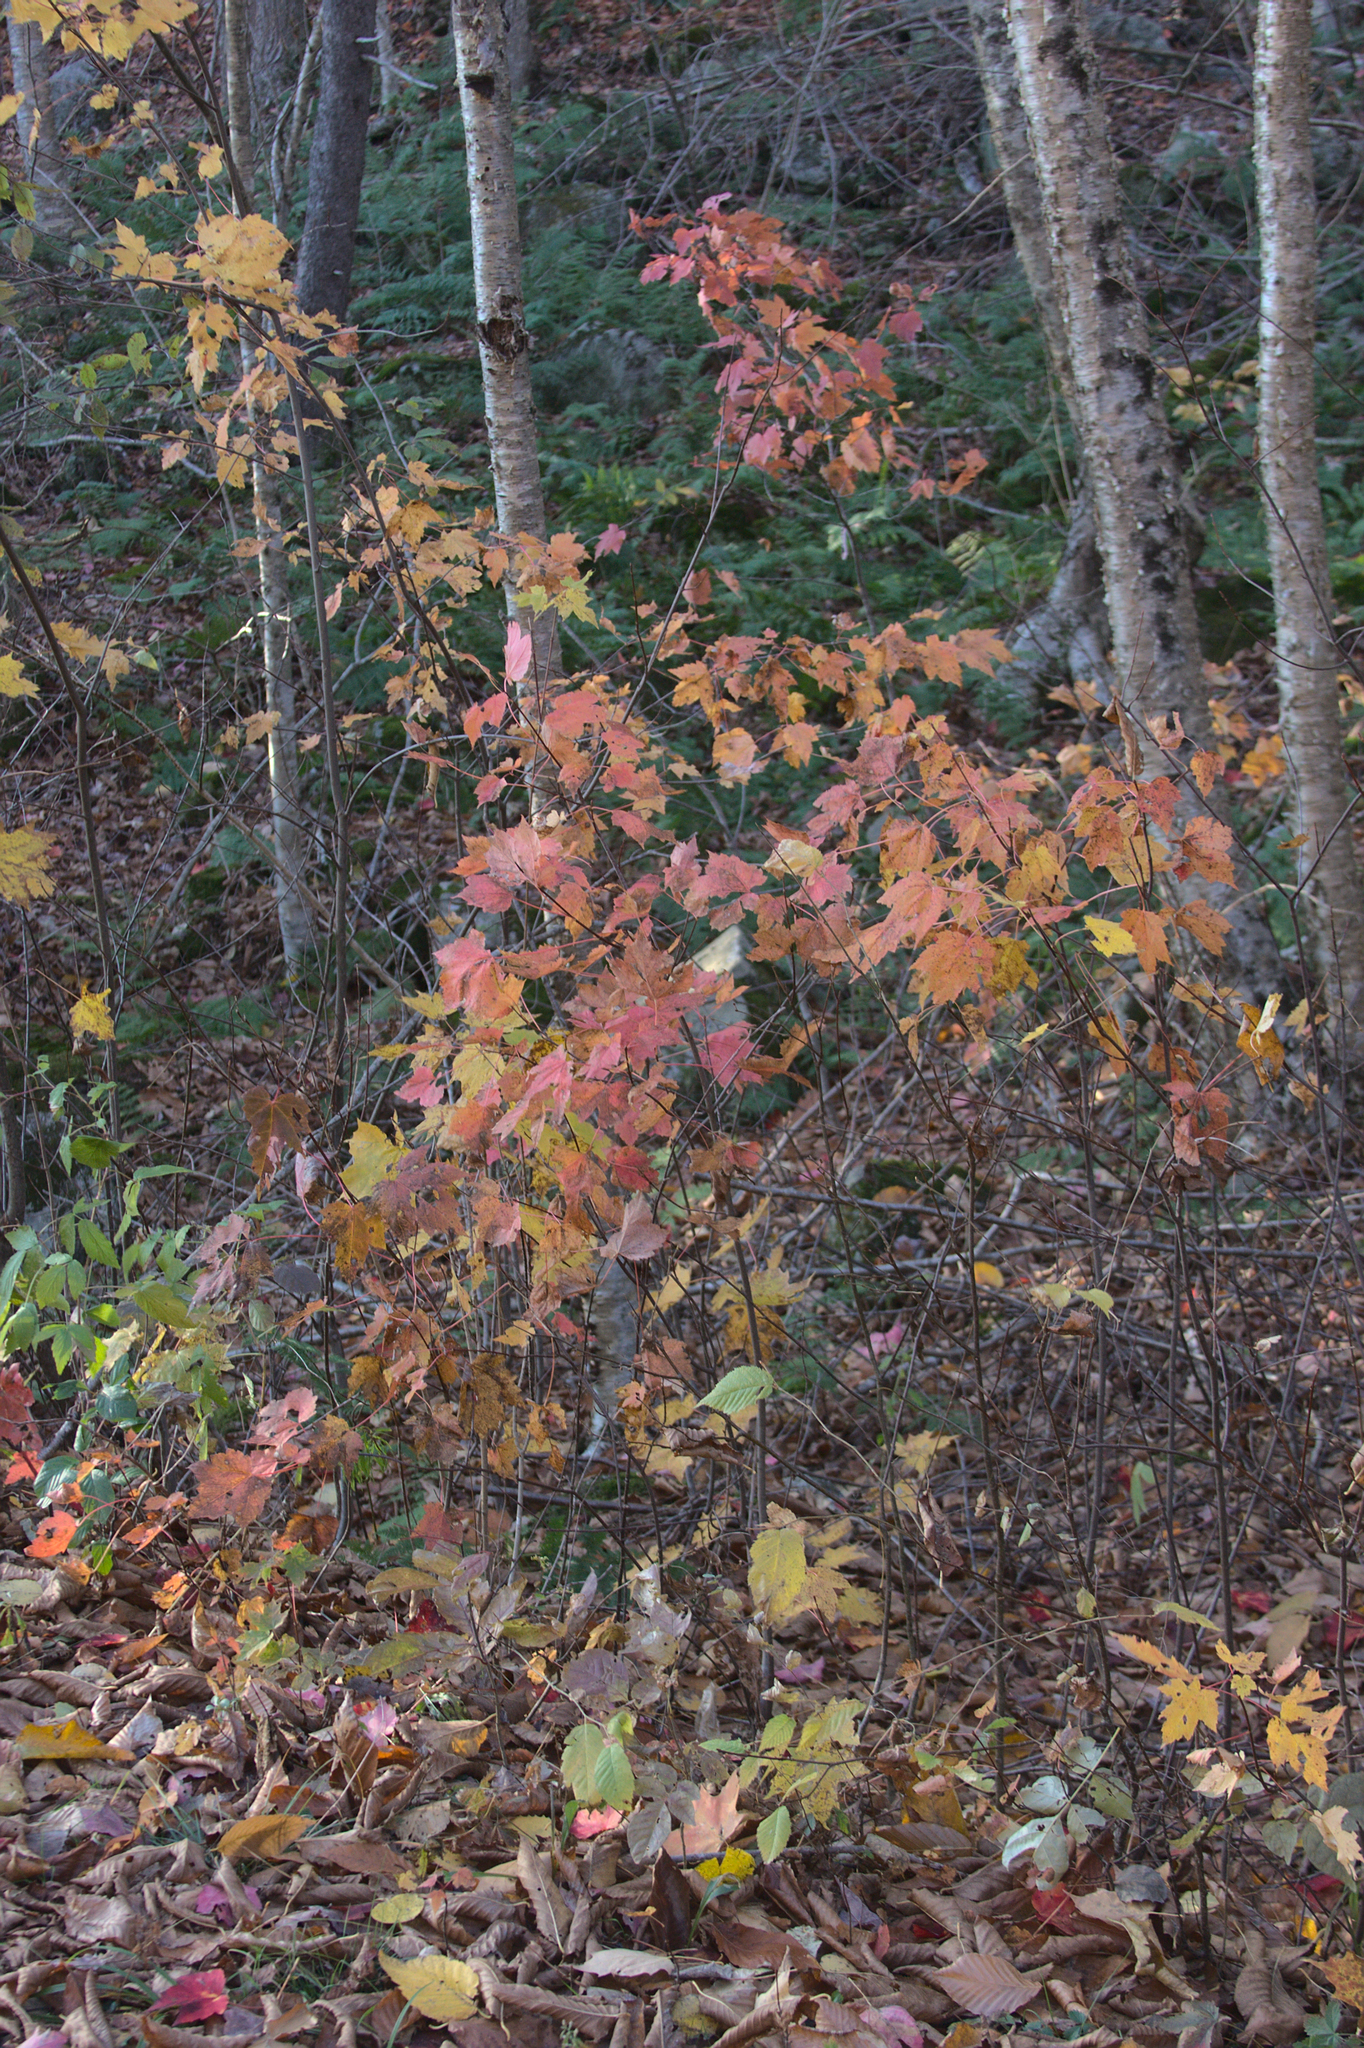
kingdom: Plantae
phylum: Tracheophyta
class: Magnoliopsida
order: Sapindales
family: Sapindaceae
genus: Acer
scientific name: Acer rubrum
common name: Red maple
